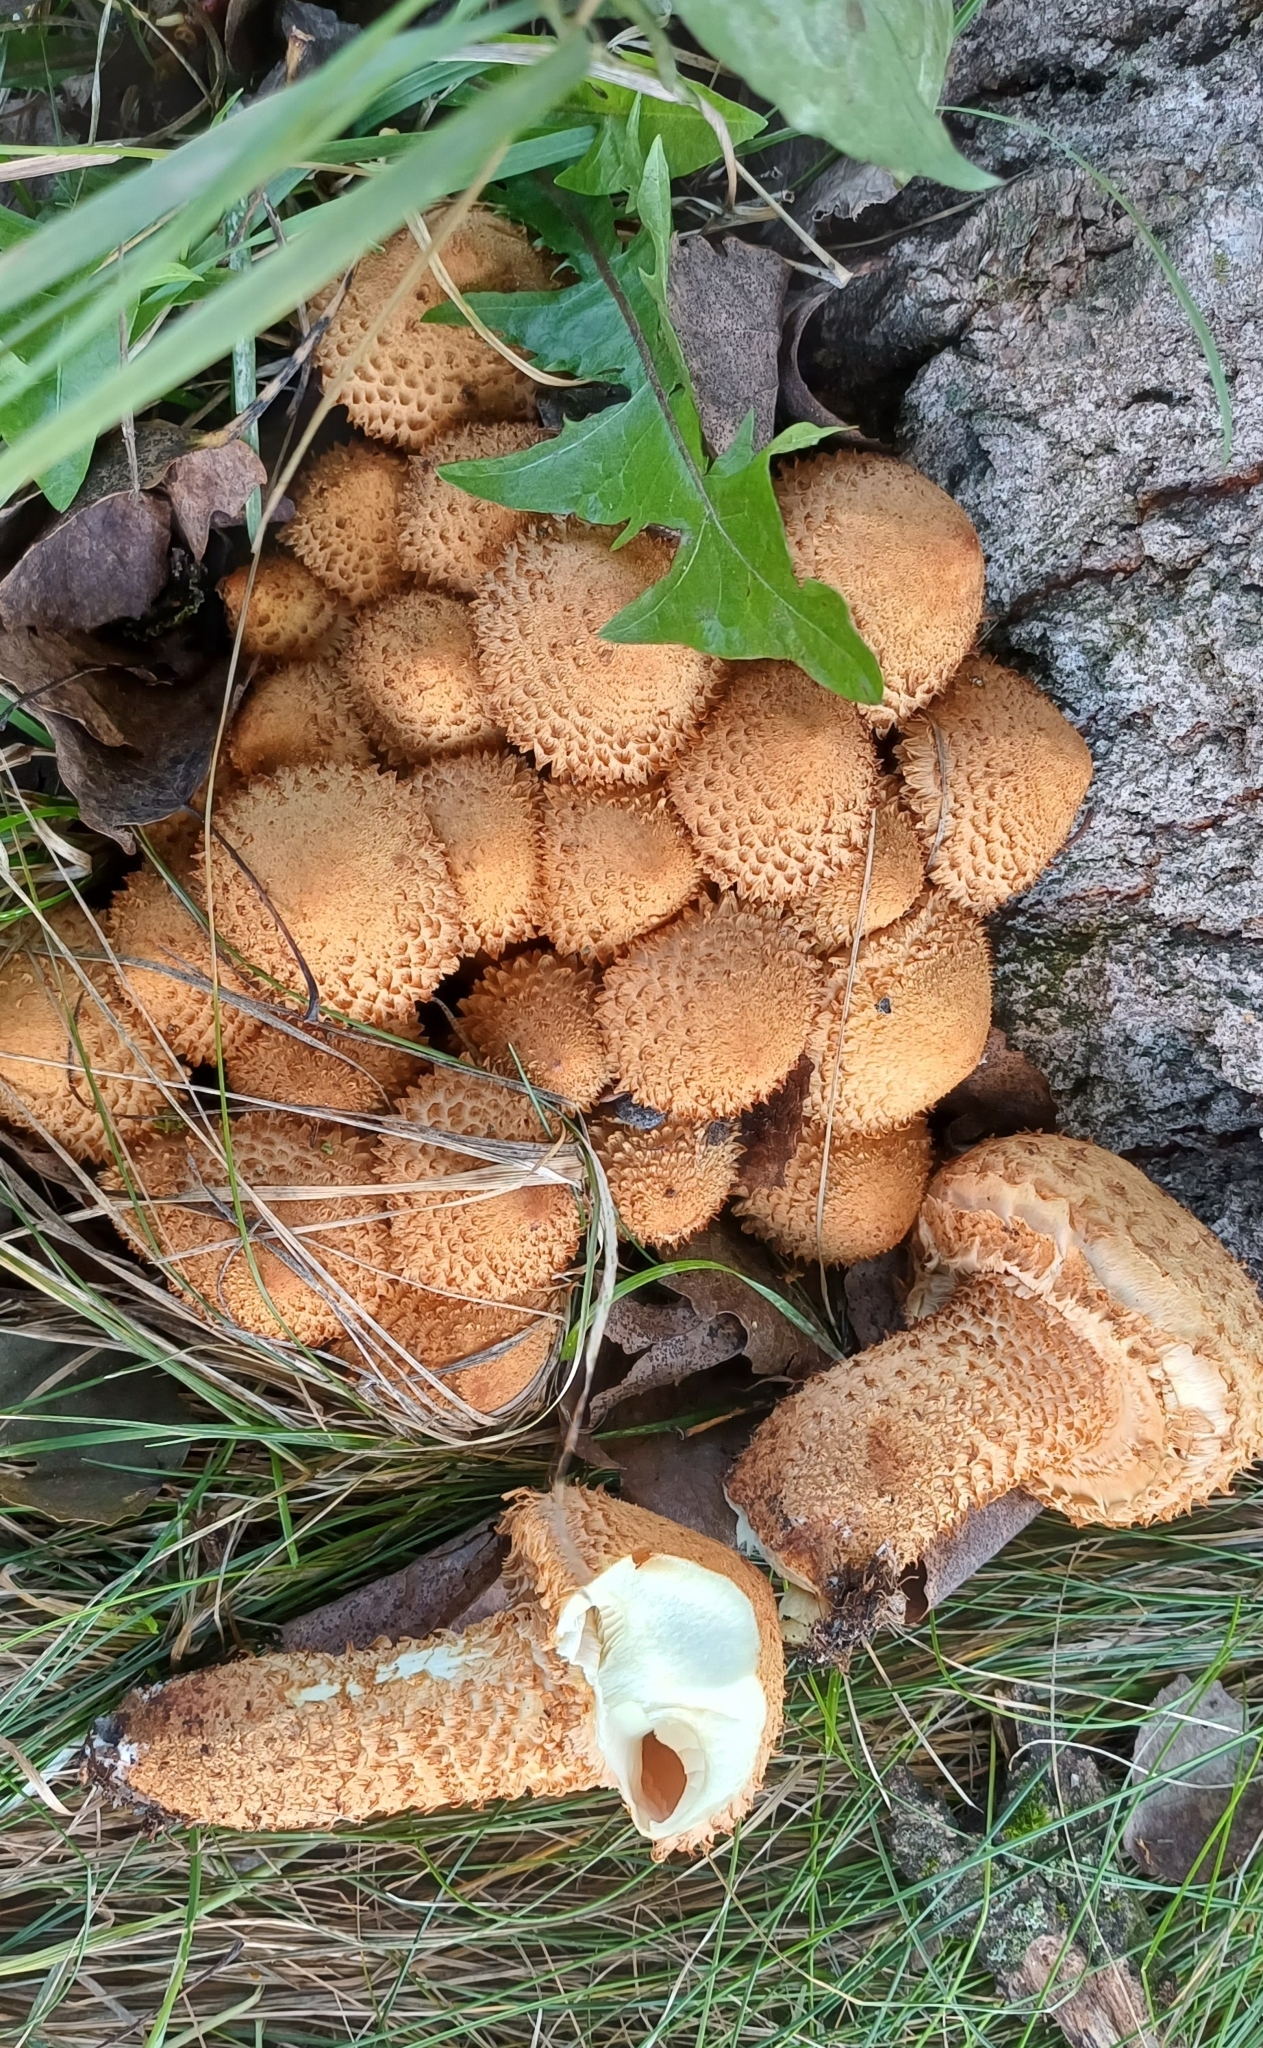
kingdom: Fungi
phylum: Basidiomycota
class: Agaricomycetes
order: Agaricales
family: Strophariaceae
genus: Pholiota
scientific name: Pholiota squarrosa
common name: Shaggy pholiota
